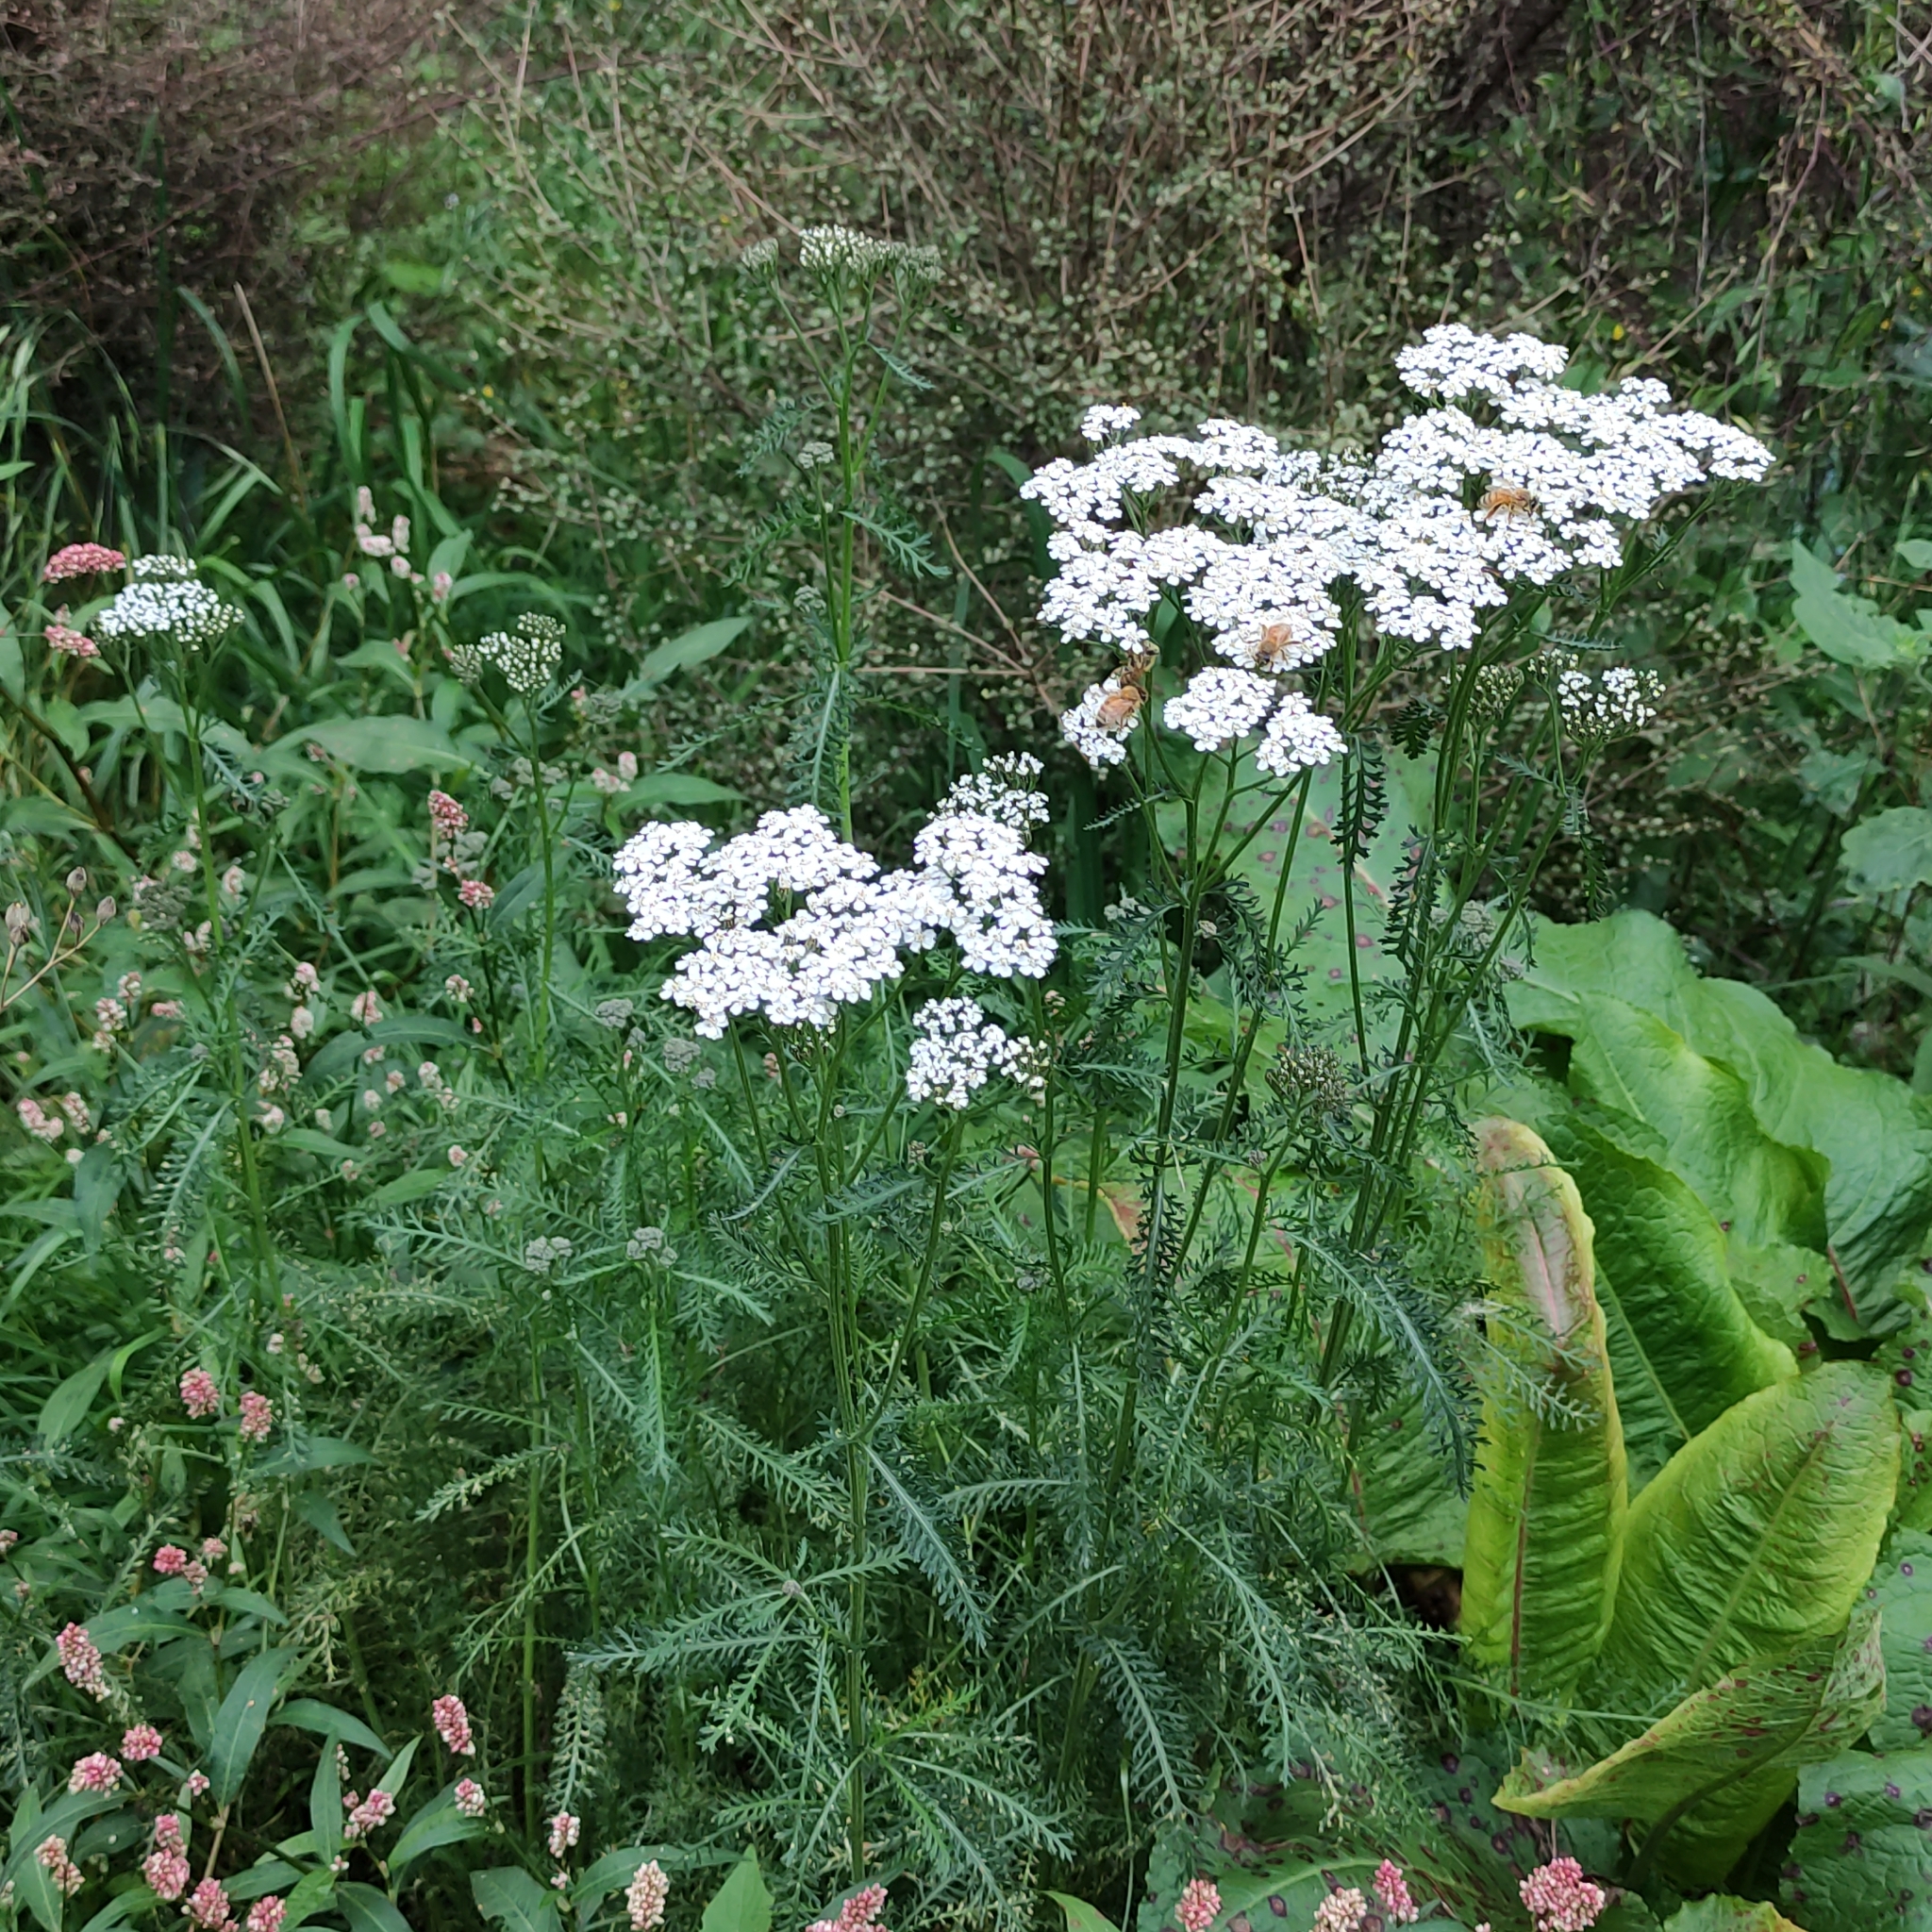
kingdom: Plantae
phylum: Tracheophyta
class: Magnoliopsida
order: Asterales
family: Asteraceae
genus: Achillea
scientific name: Achillea millefolium
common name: Yarrow
